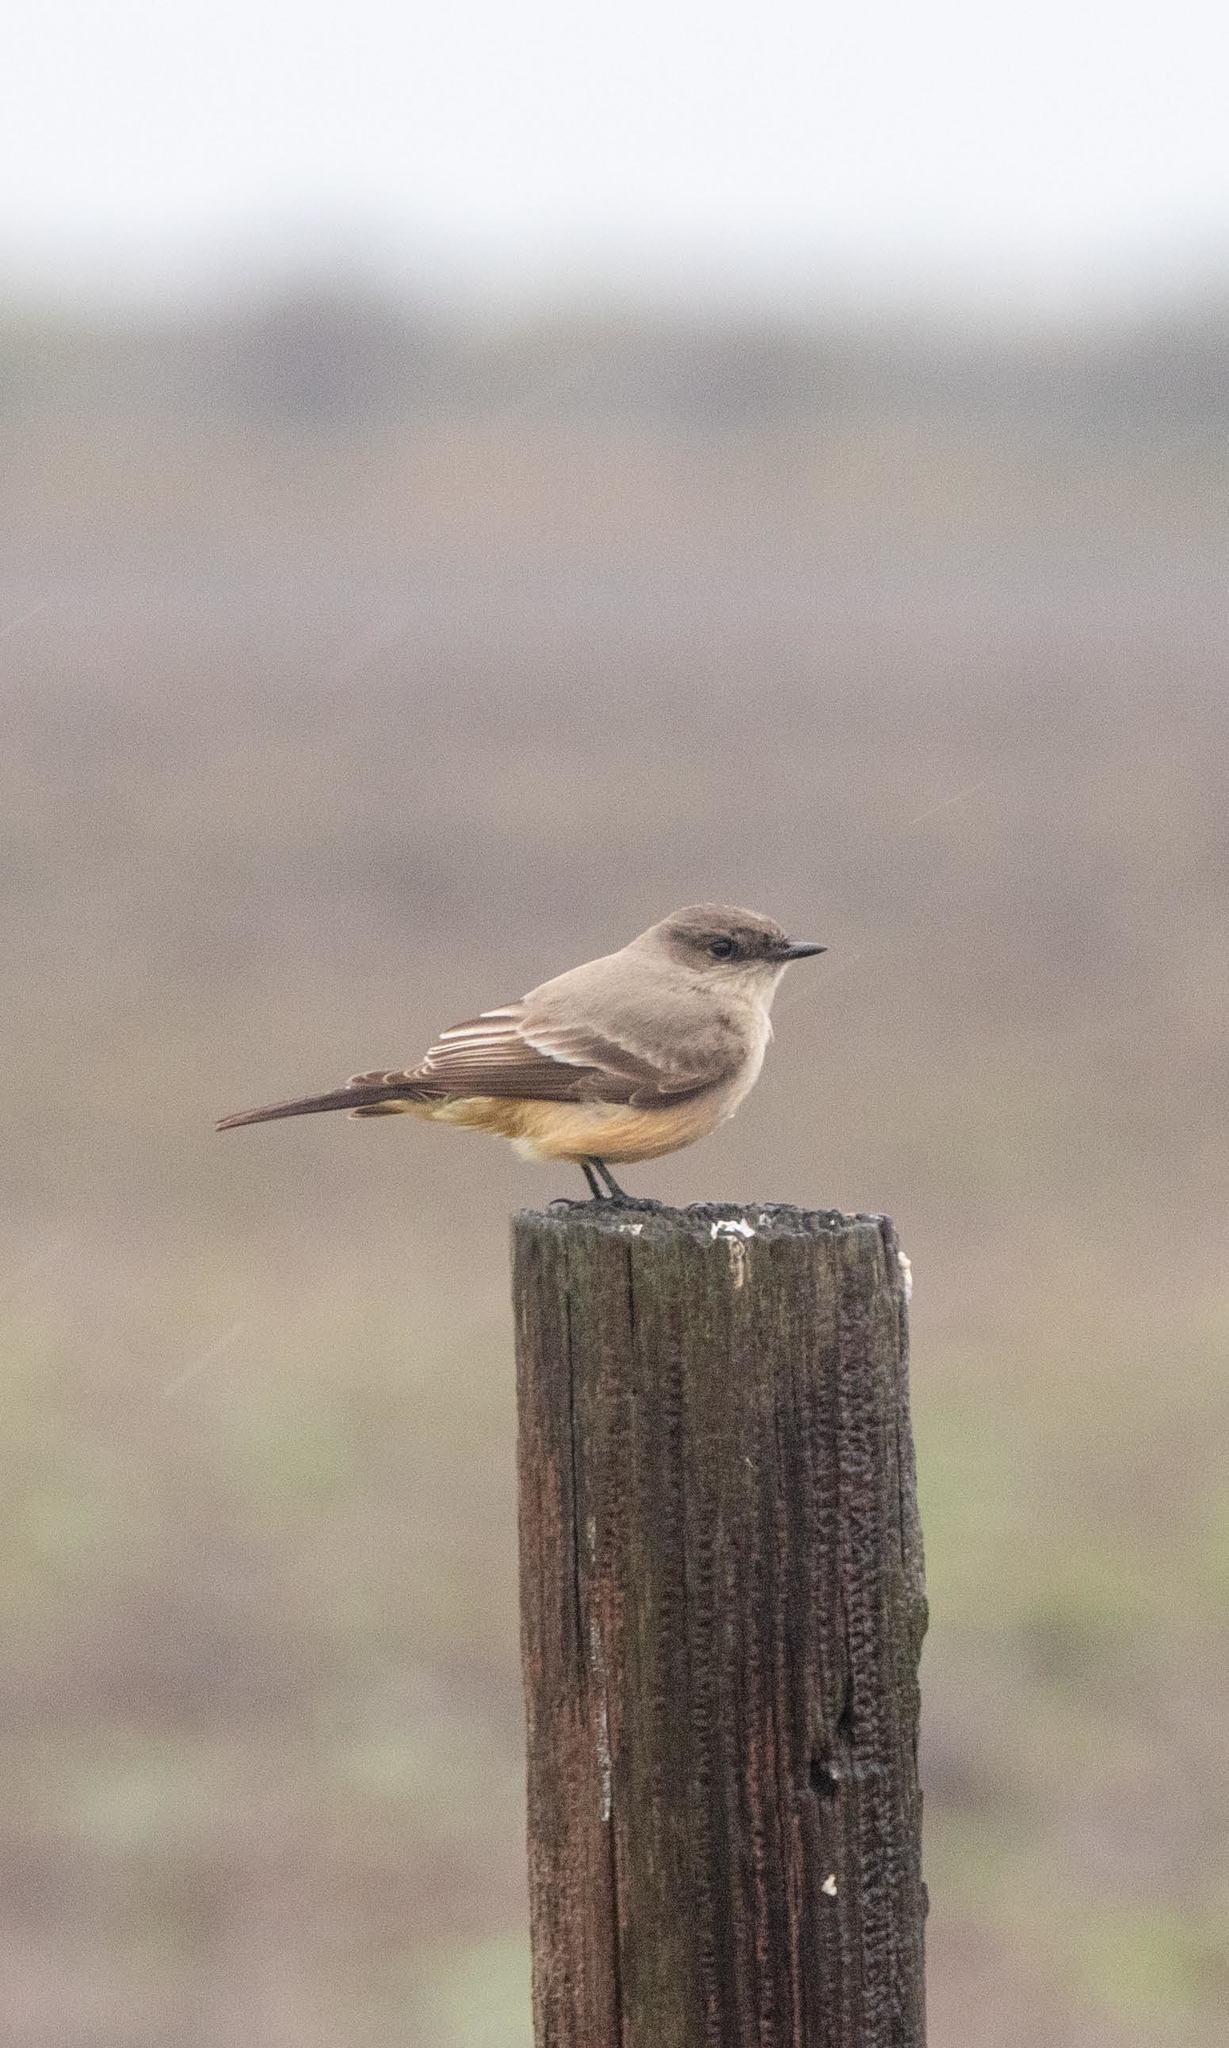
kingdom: Animalia
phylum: Chordata
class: Aves
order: Passeriformes
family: Tyrannidae
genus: Sayornis
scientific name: Sayornis saya
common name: Say's phoebe
